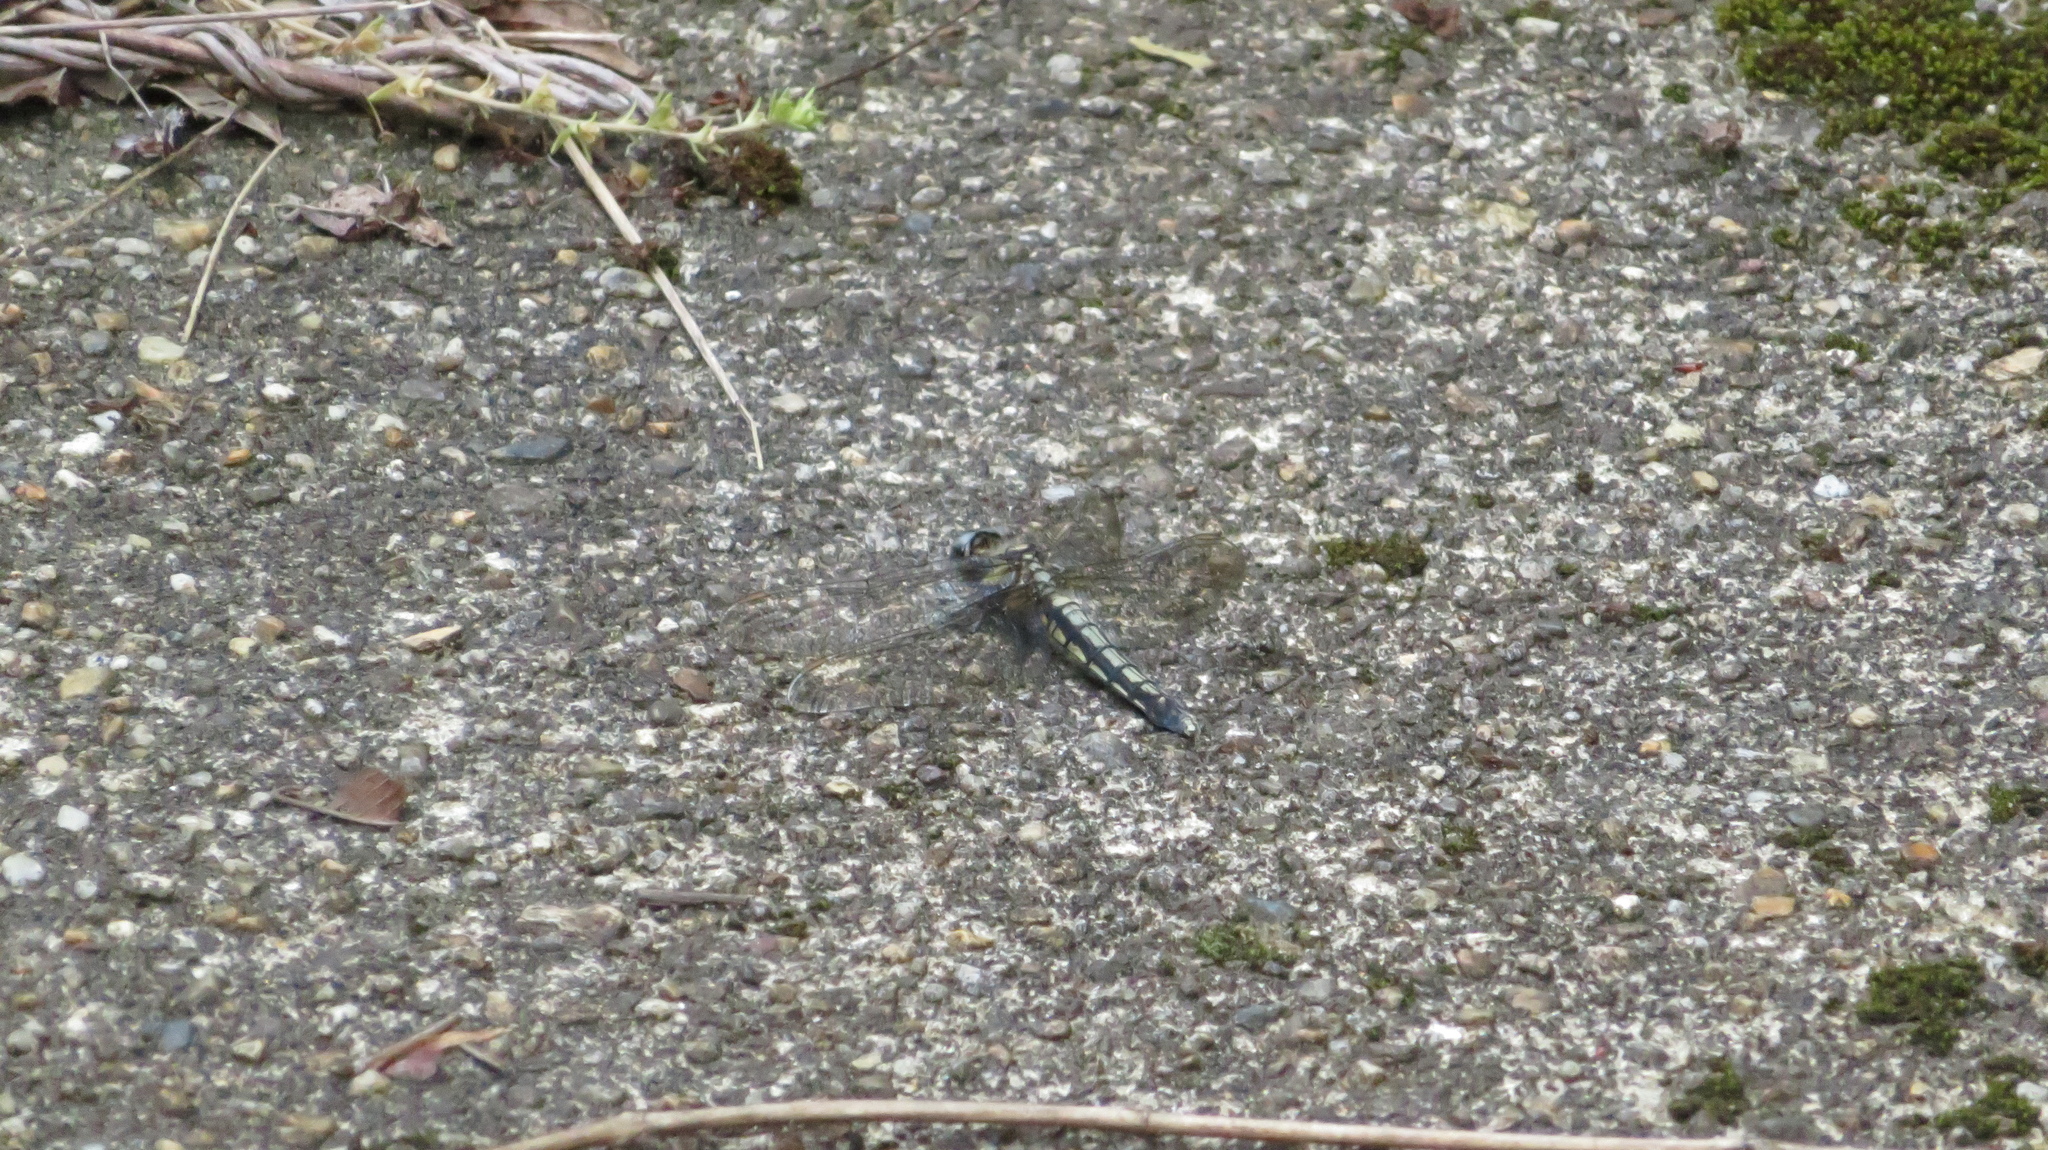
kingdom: Animalia
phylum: Arthropoda
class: Insecta
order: Odonata
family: Libellulidae
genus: Orthetrum
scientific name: Orthetrum japonicum
